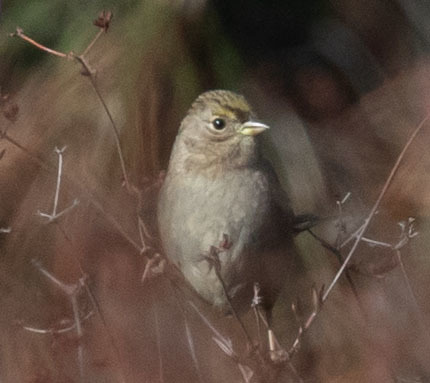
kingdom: Animalia
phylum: Chordata
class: Aves
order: Passeriformes
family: Passerellidae
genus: Zonotrichia
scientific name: Zonotrichia atricapilla
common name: Golden-crowned sparrow
